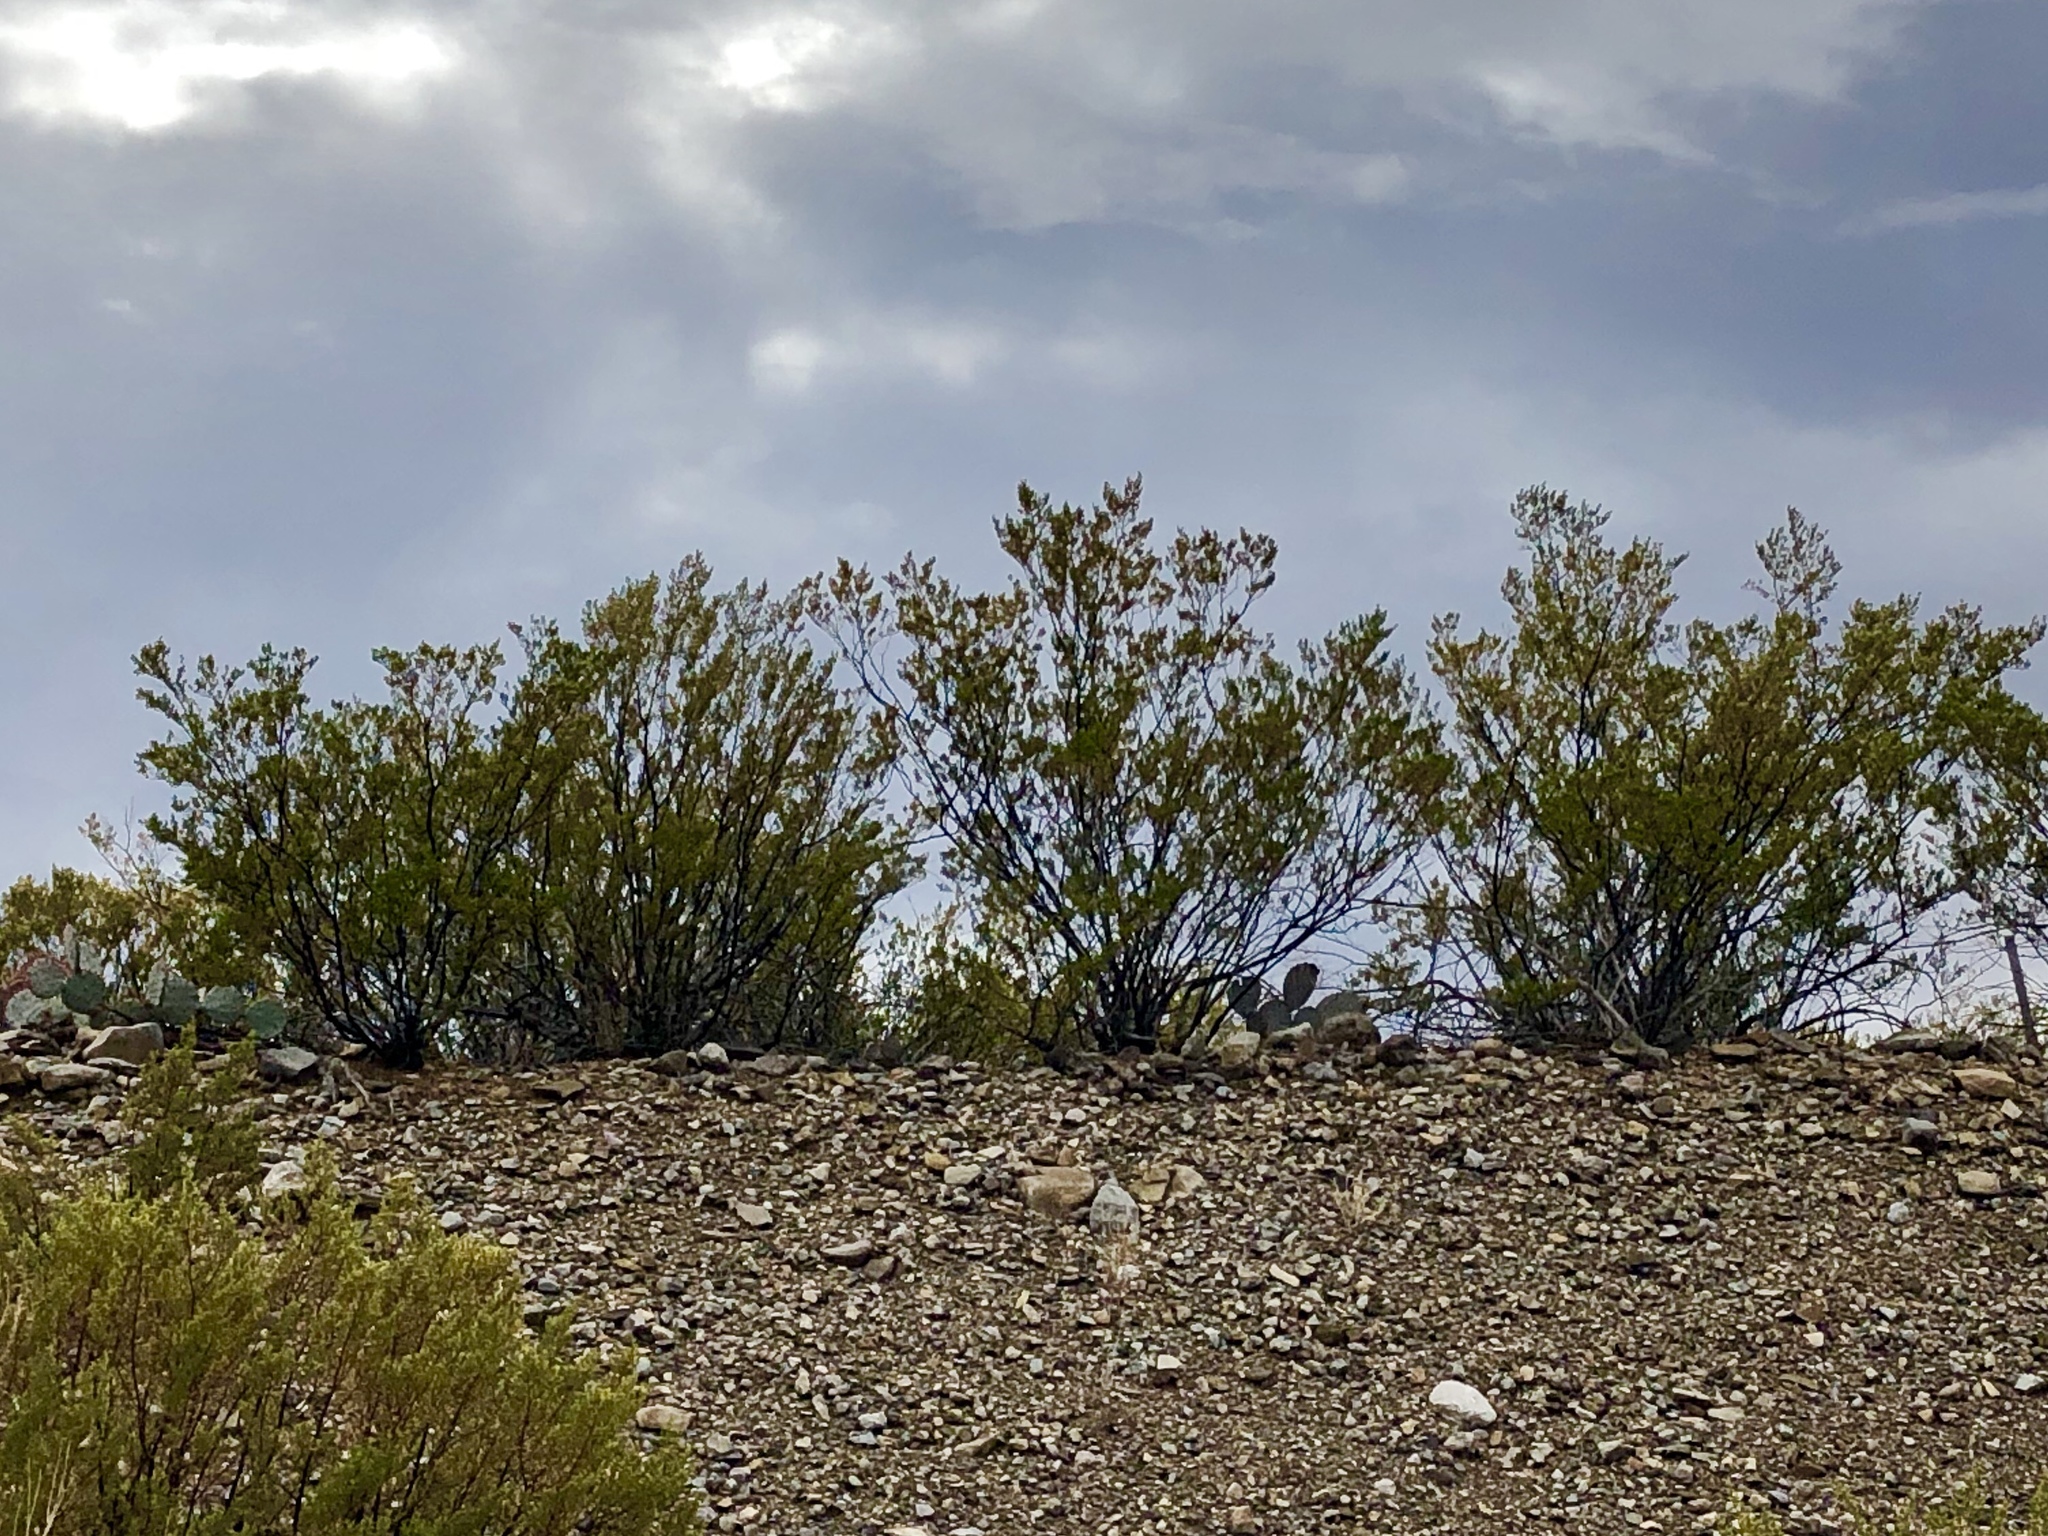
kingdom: Plantae
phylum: Tracheophyta
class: Magnoliopsida
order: Zygophyllales
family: Zygophyllaceae
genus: Larrea
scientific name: Larrea tridentata
